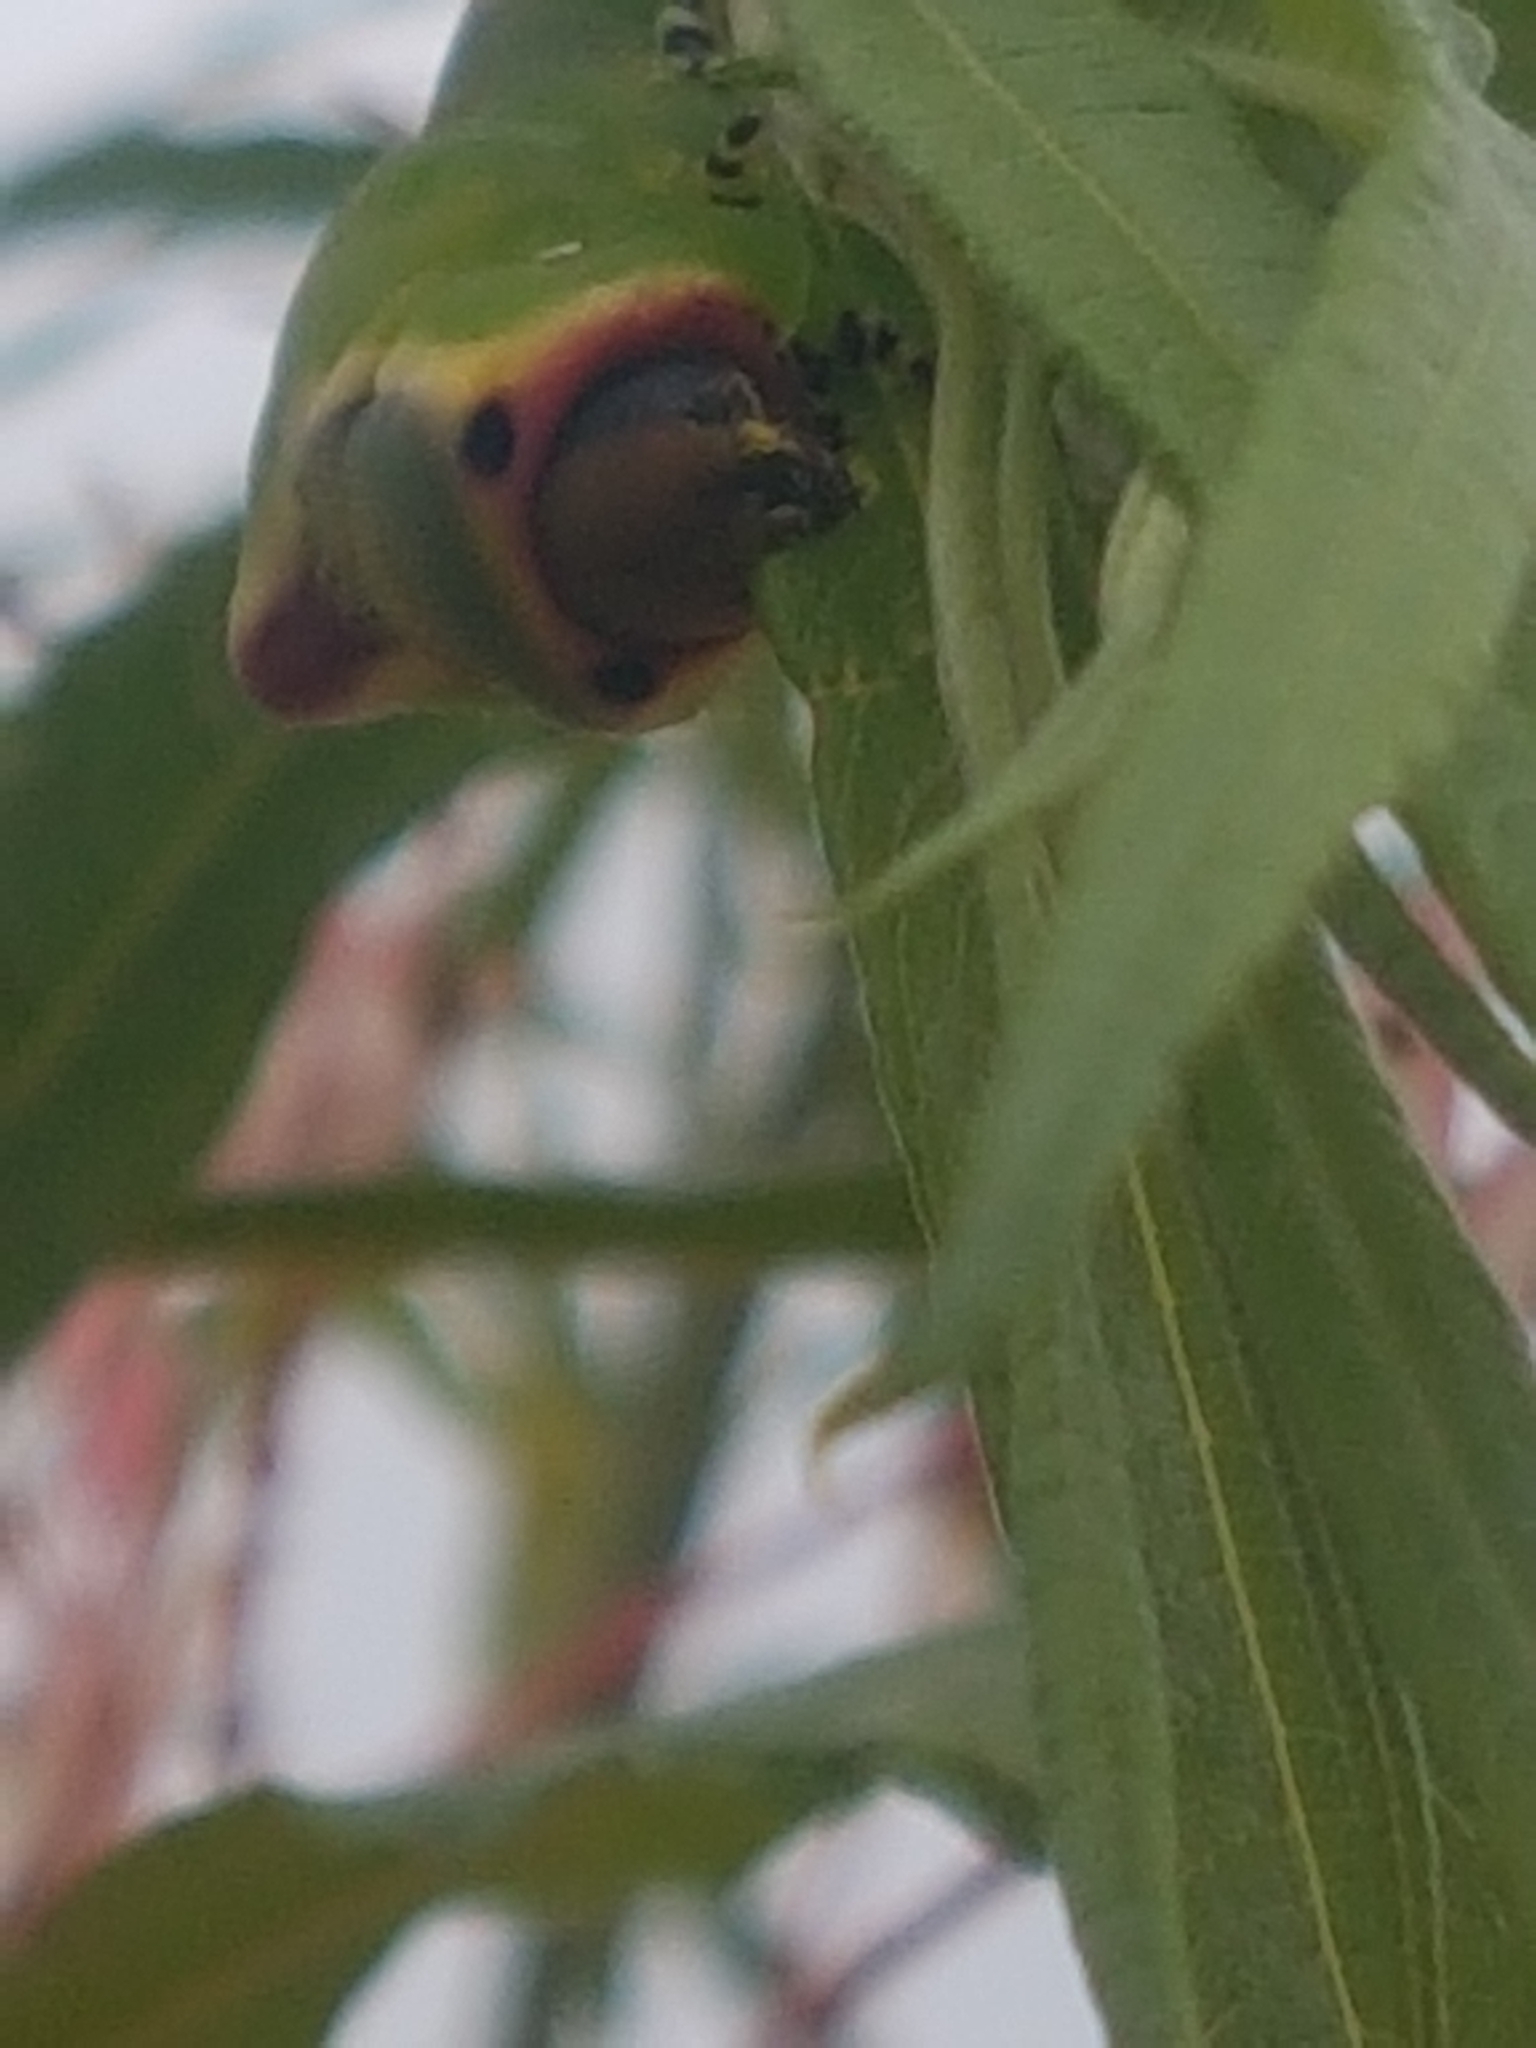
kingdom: Animalia
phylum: Arthropoda
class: Insecta
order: Lepidoptera
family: Notodontidae
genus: Cerura
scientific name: Cerura vinula
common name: Puss moth
